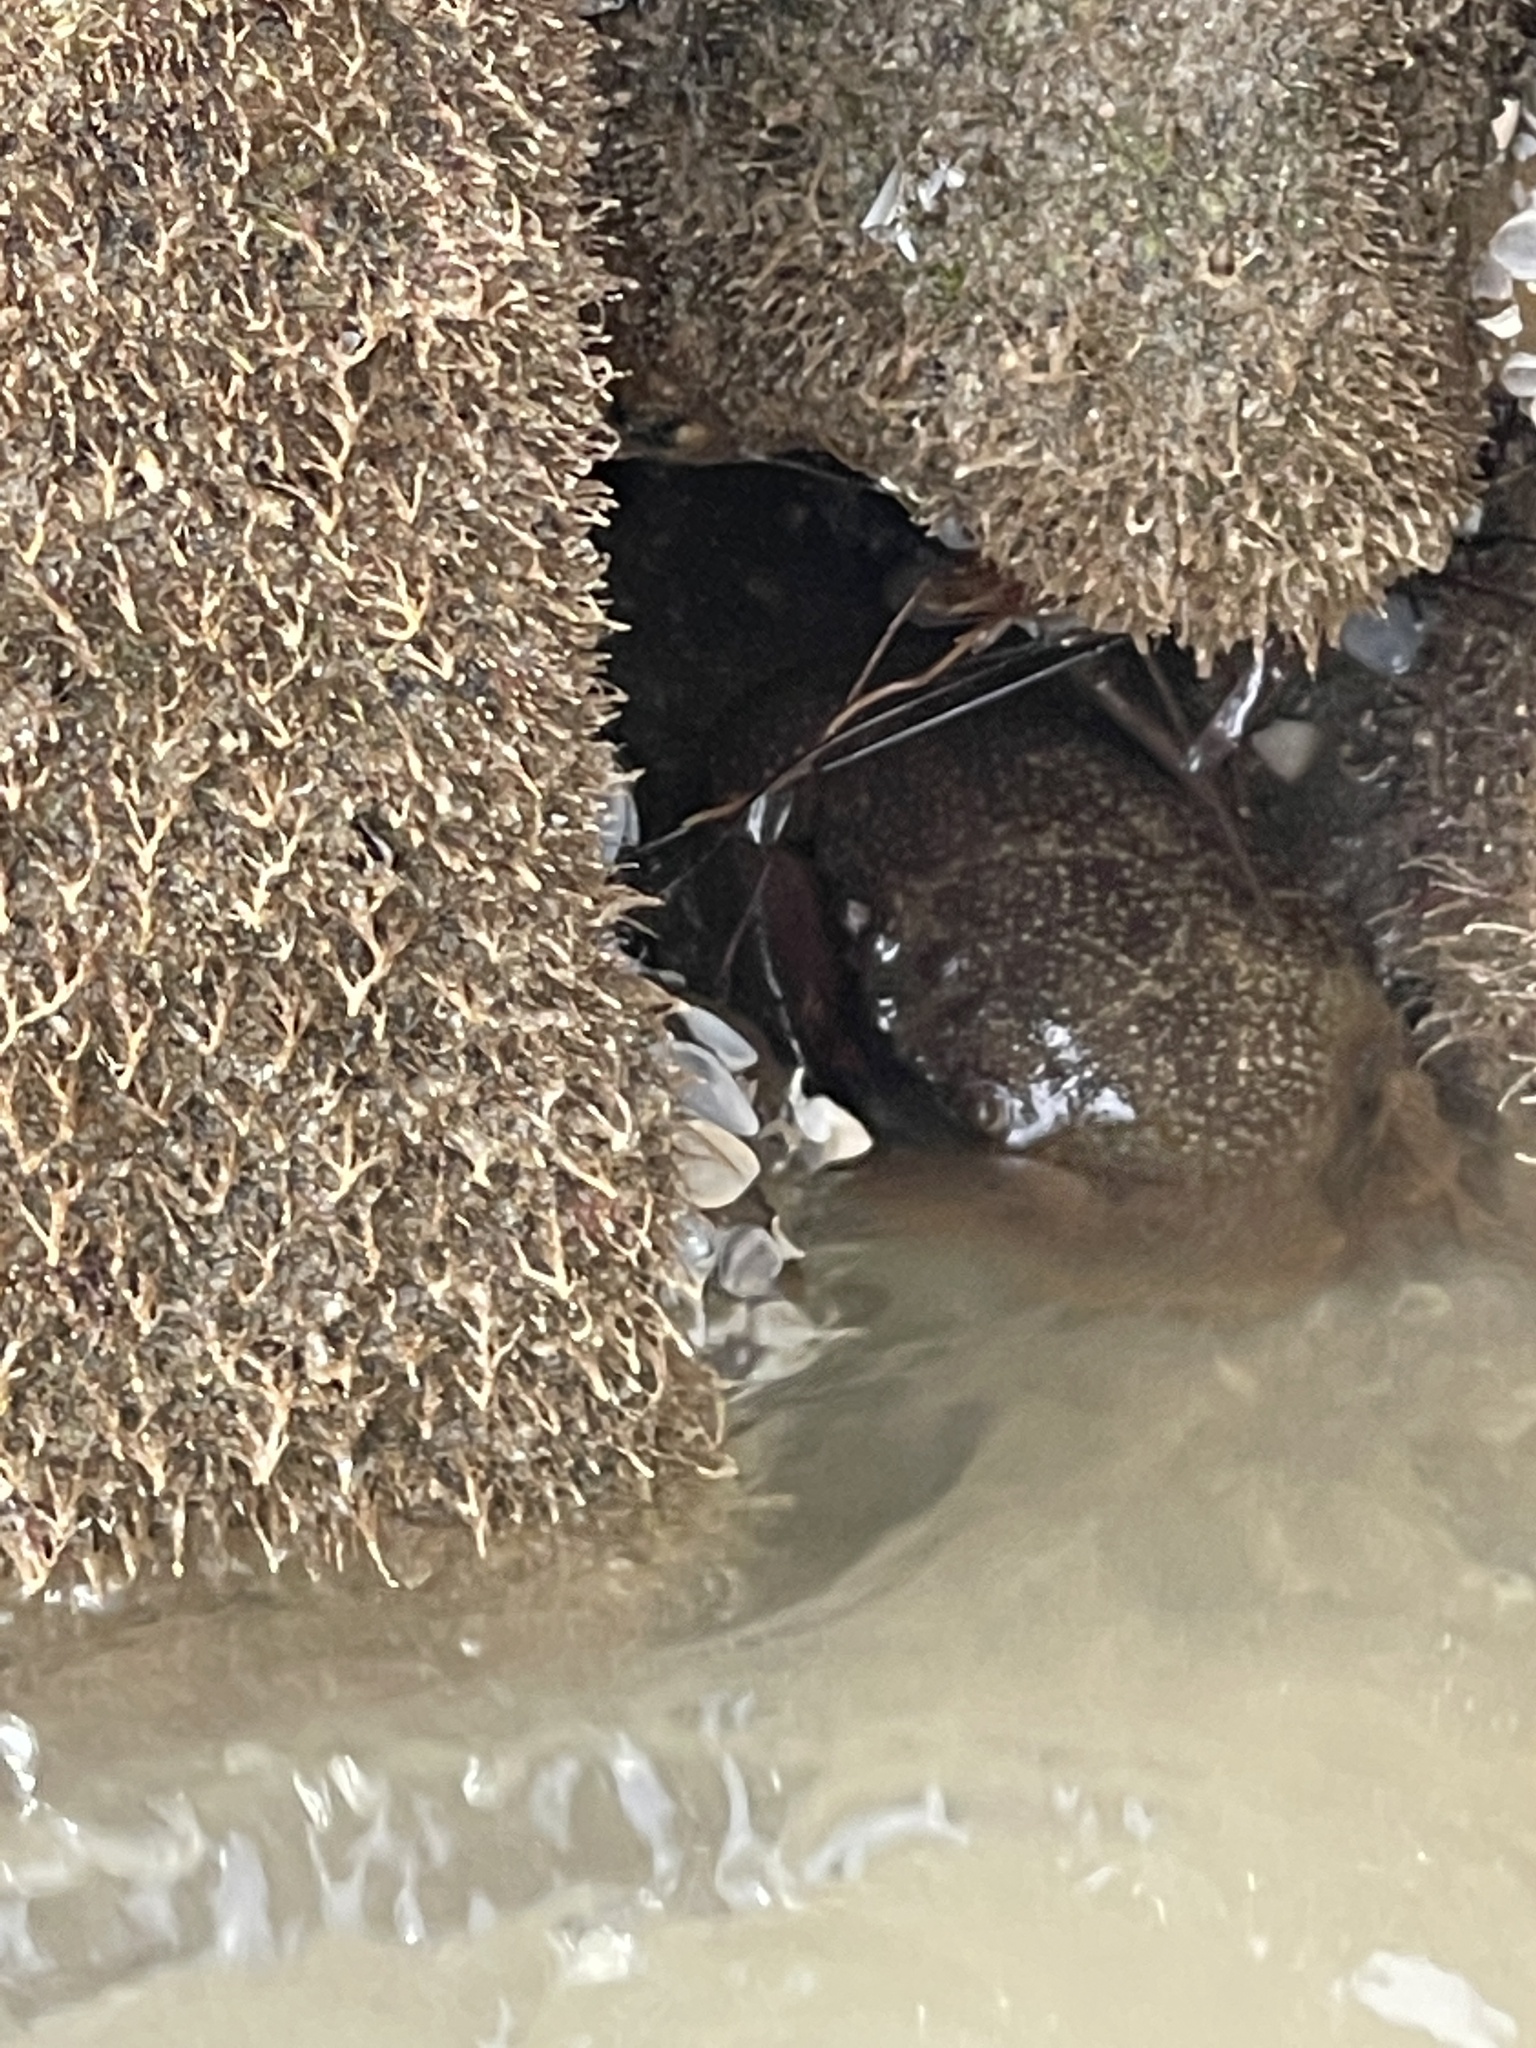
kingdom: Animalia
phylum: Arthropoda
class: Malacostraca
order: Decapoda
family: Menippidae
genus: Menippe
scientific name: Menippe adina
